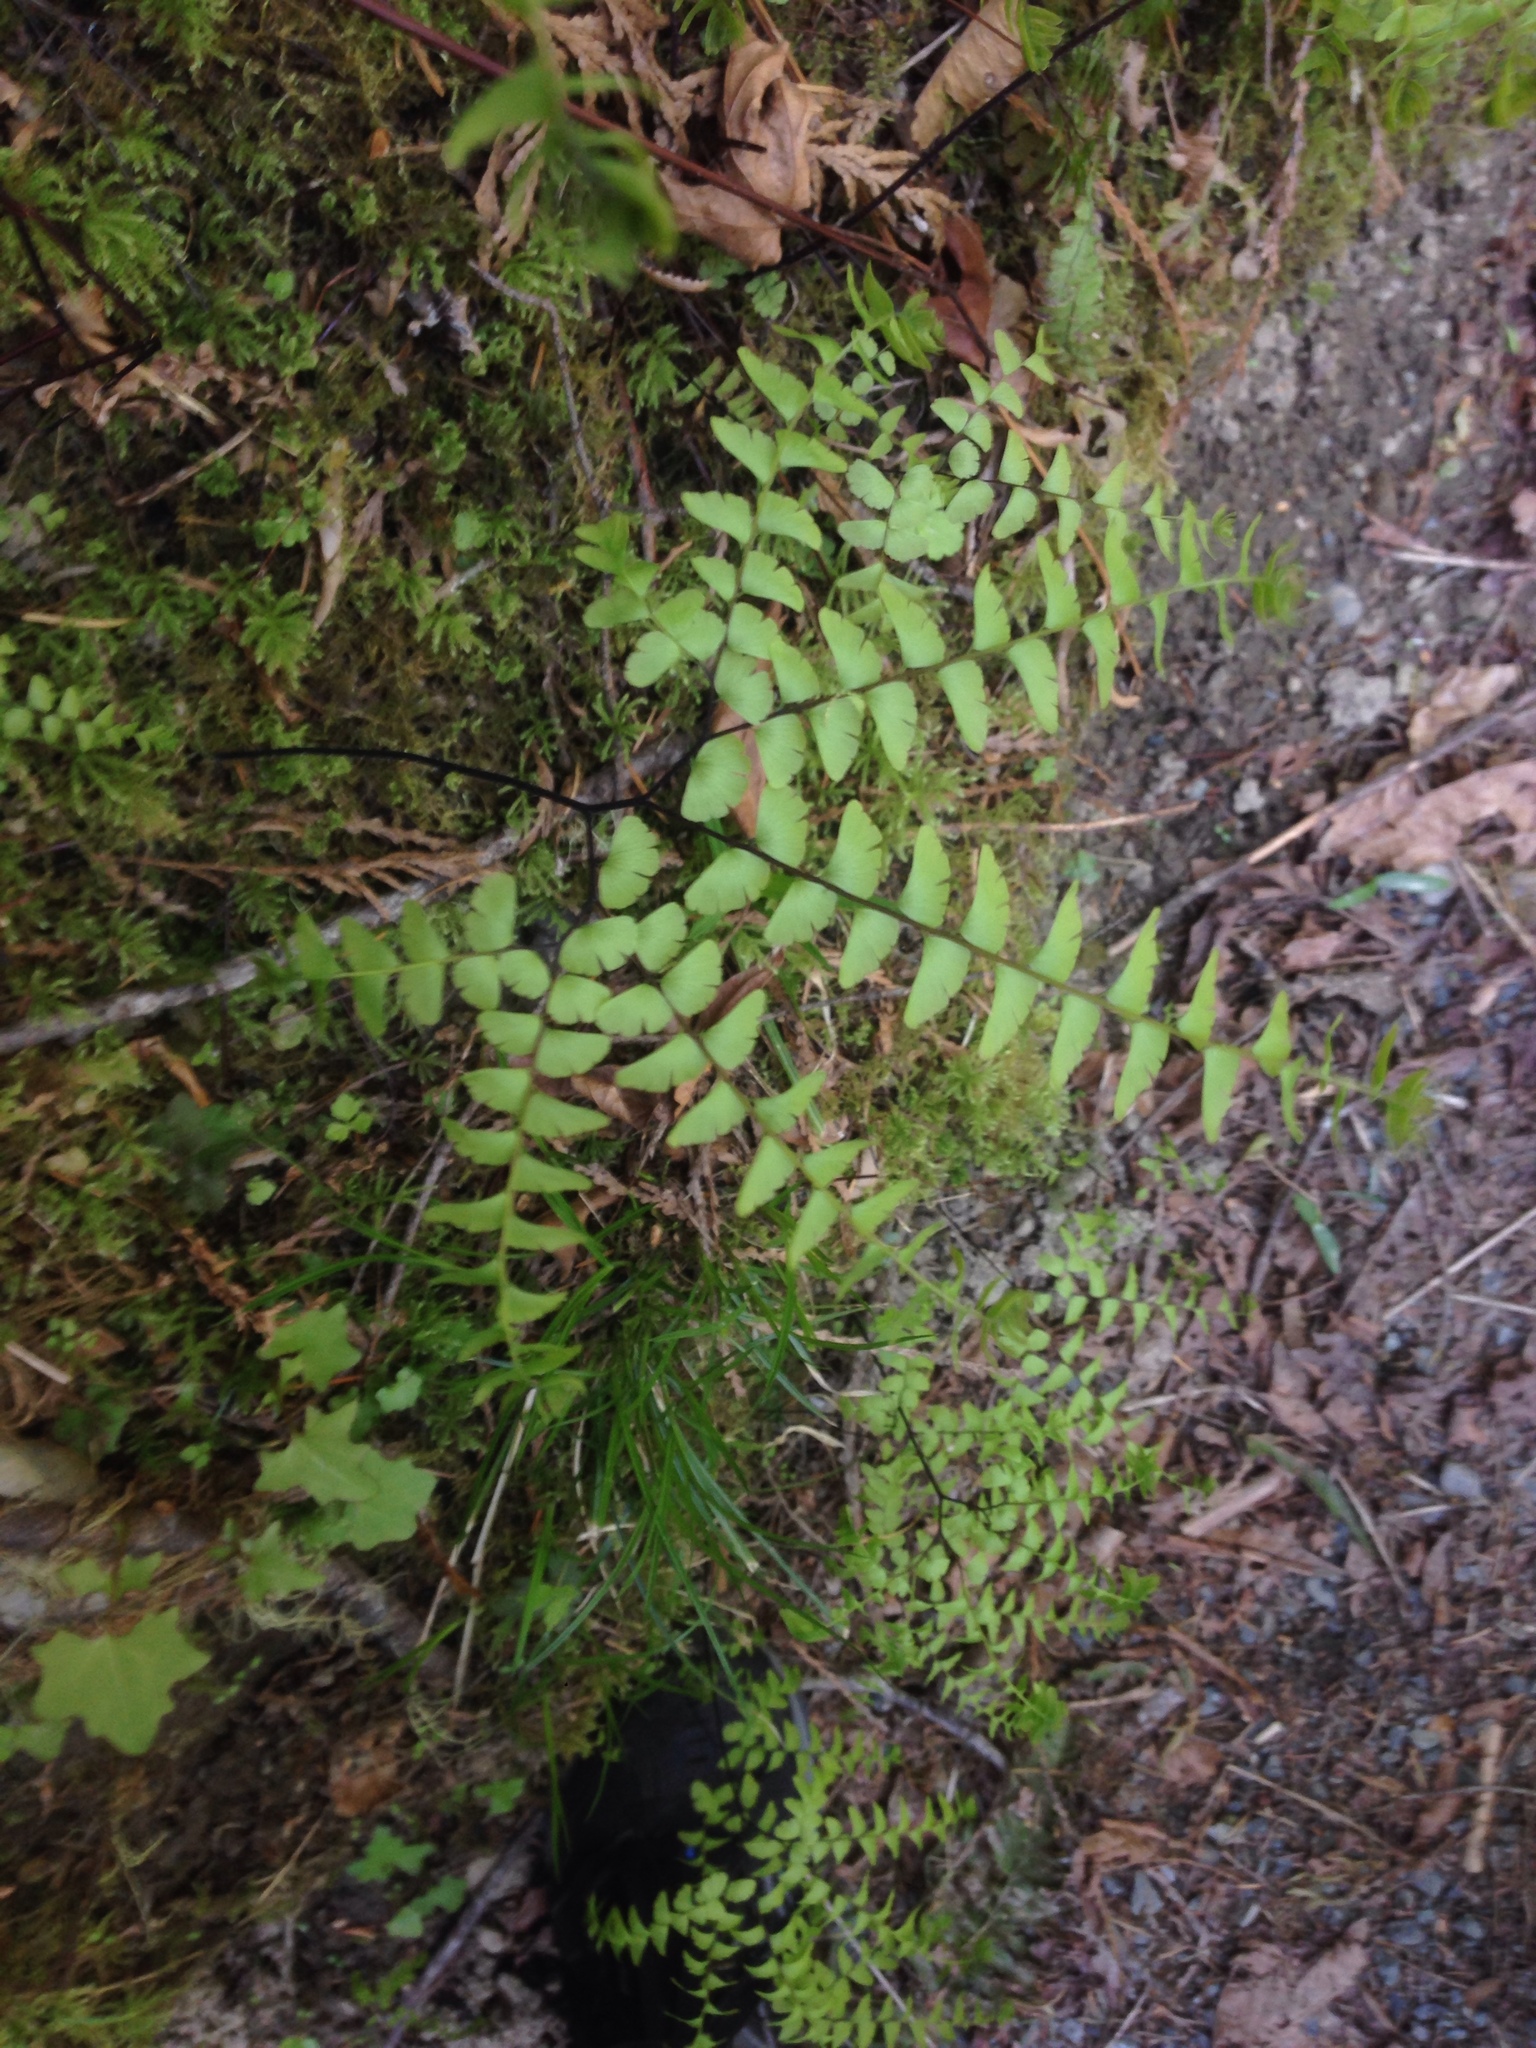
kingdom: Plantae
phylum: Tracheophyta
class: Polypodiopsida
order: Polypodiales
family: Pteridaceae
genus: Adiantum
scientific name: Adiantum aleuticum
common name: Aleutian maidenhair fern
